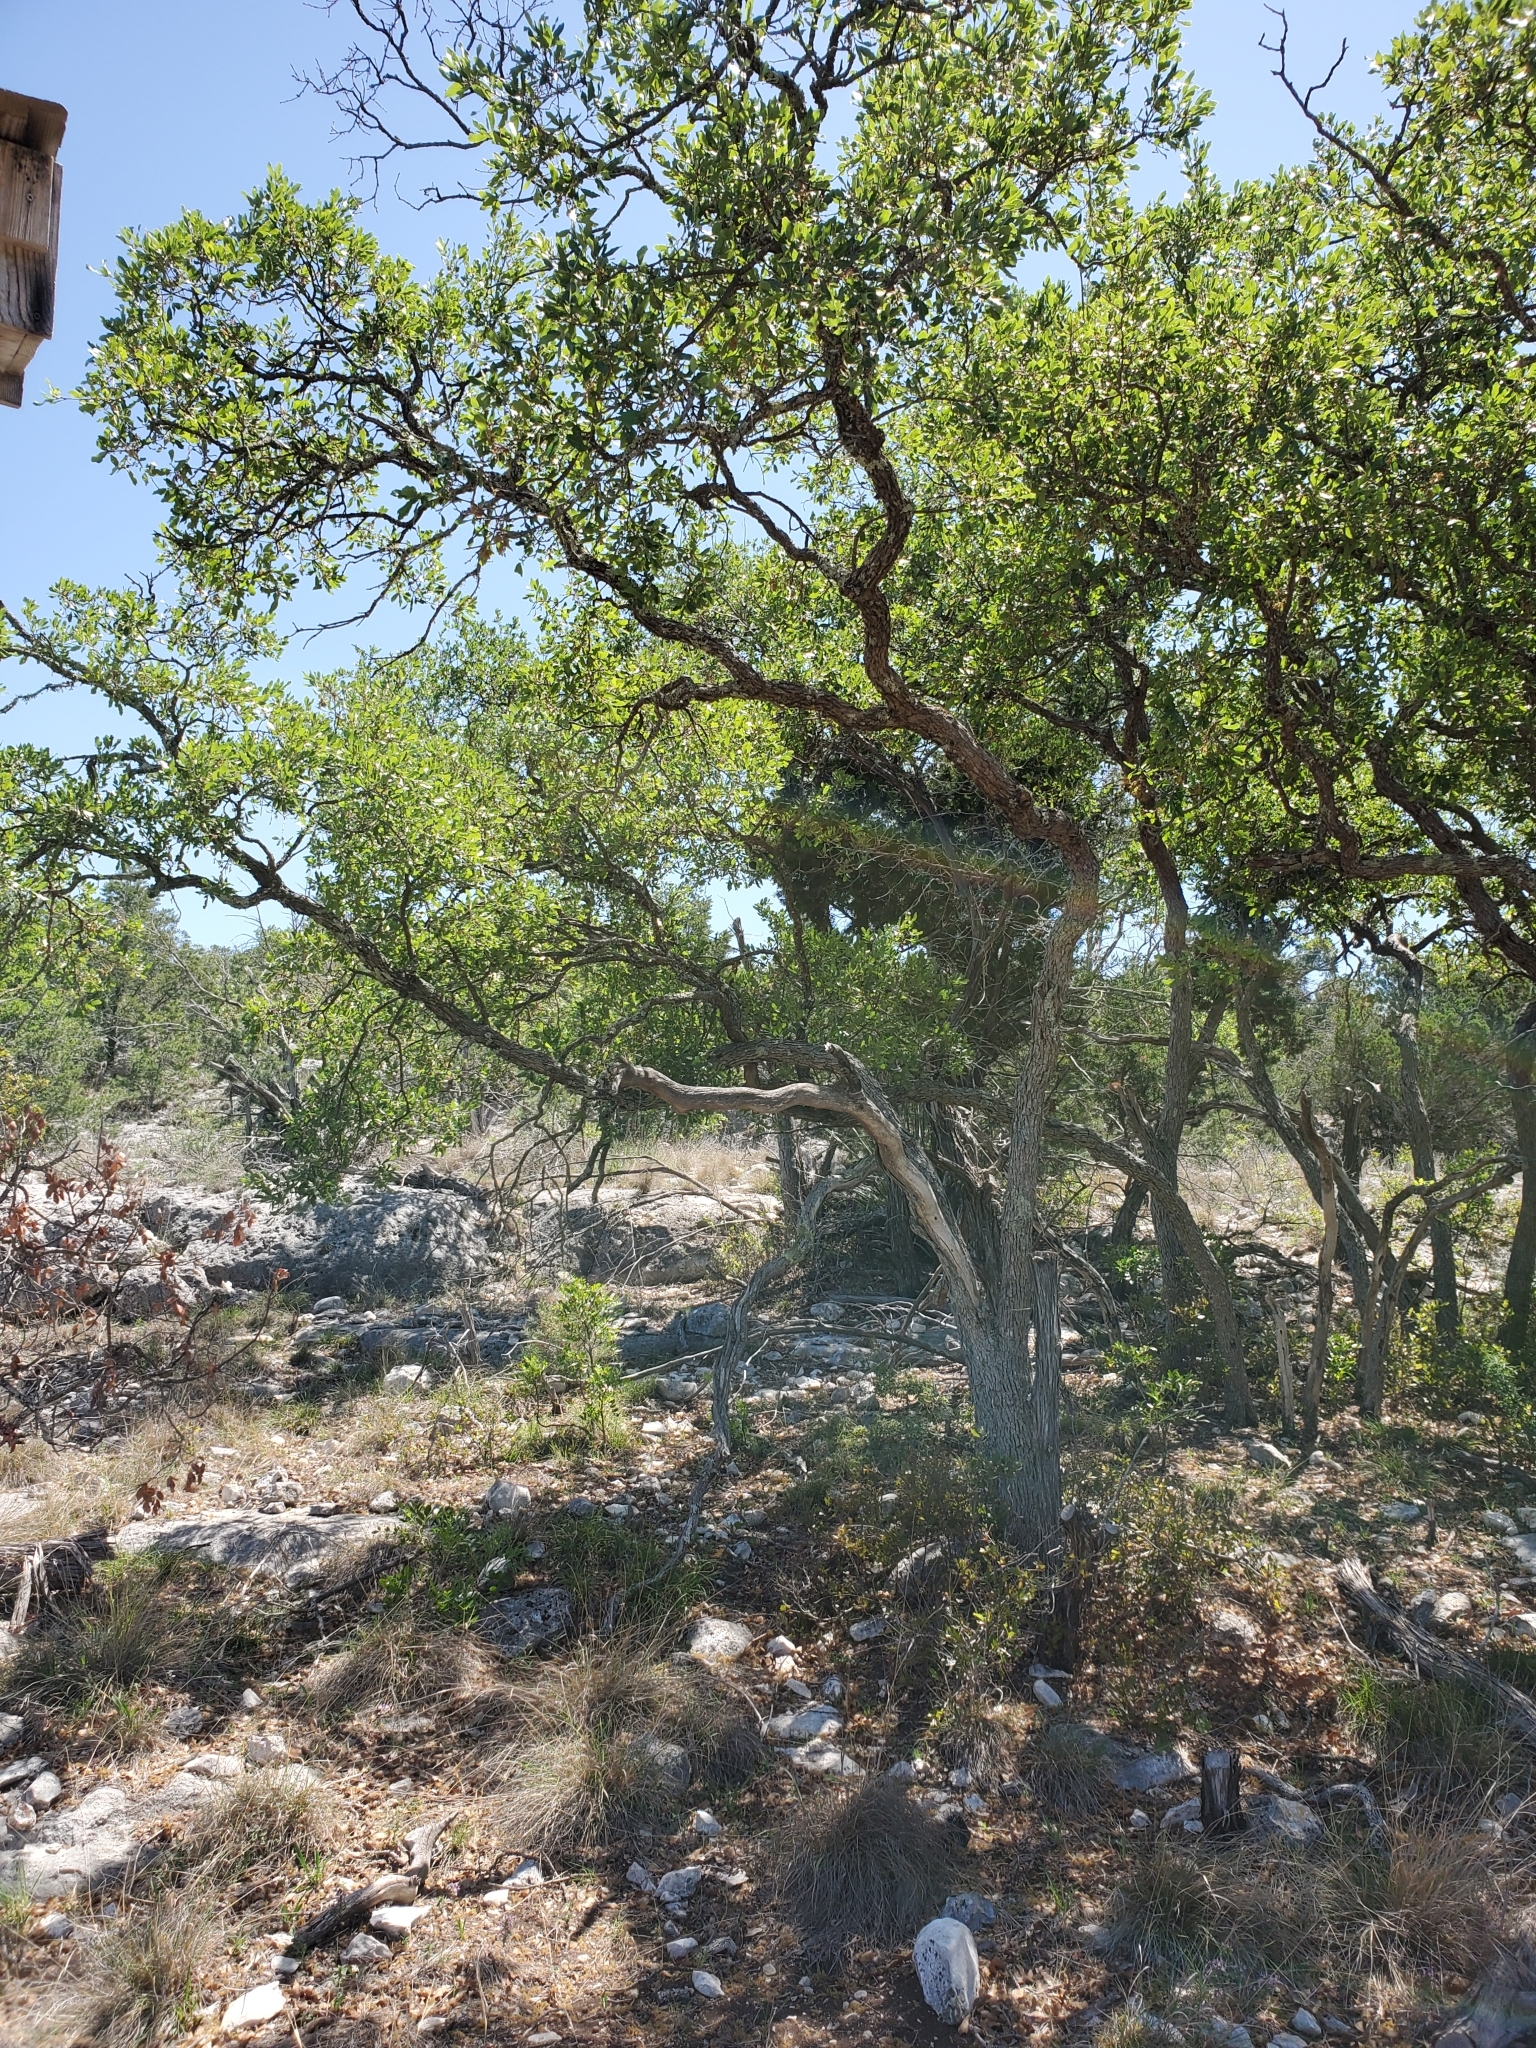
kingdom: Plantae
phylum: Tracheophyta
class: Magnoliopsida
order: Fagales
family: Fagaceae
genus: Quercus
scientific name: Quercus vaseyana
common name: Sandpaper oak
